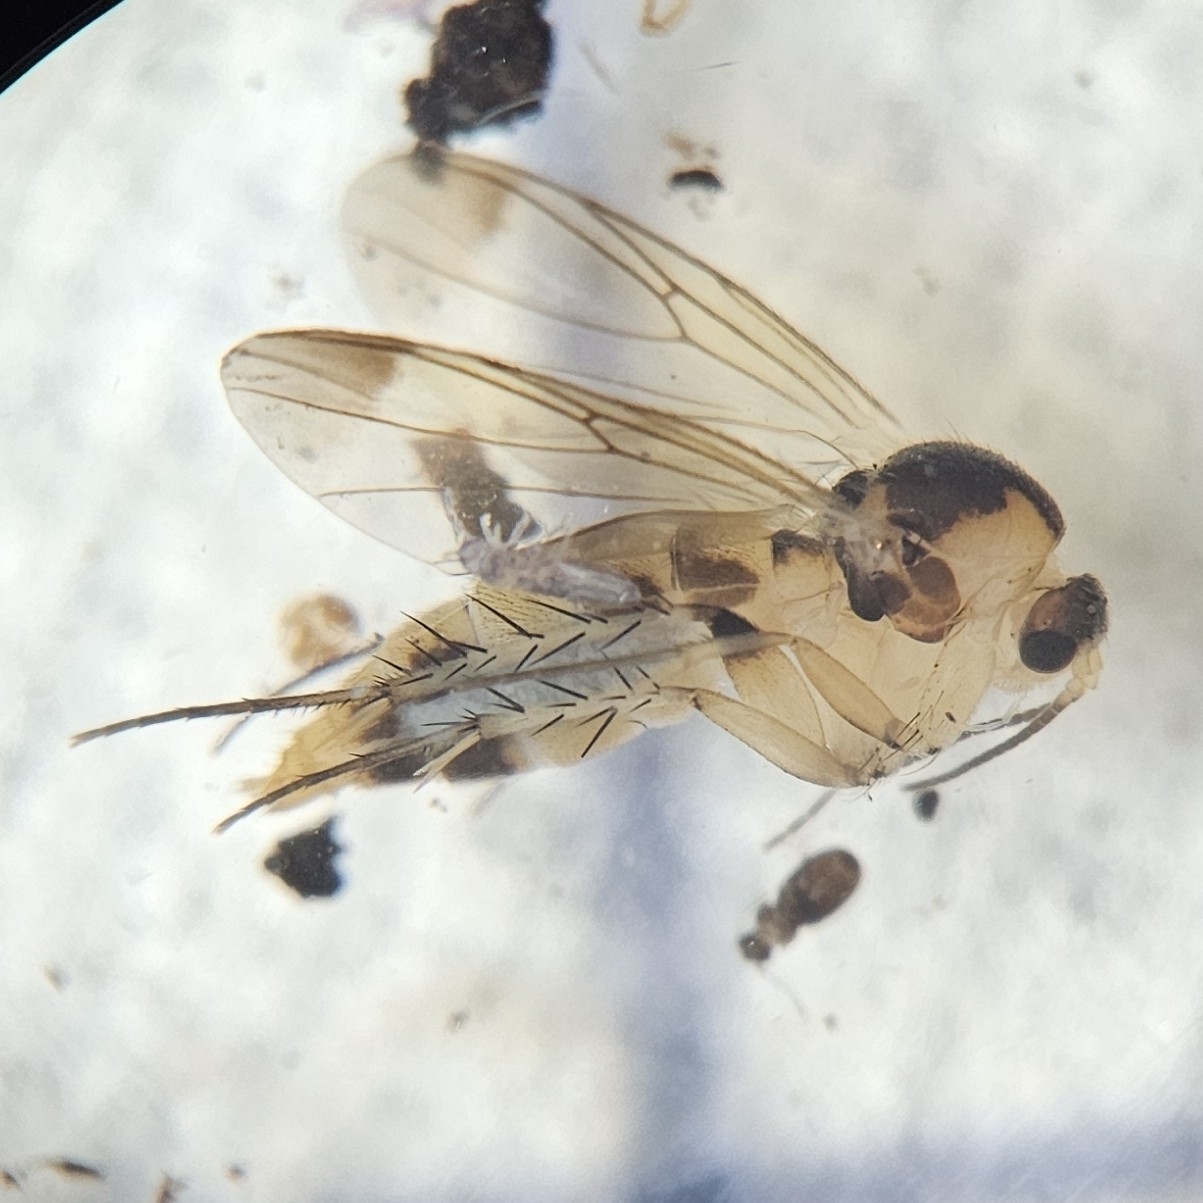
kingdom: Animalia
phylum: Arthropoda
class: Insecta
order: Diptera
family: Mycetophilidae
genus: Rondaniella
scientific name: Rondaniella dimidiata
